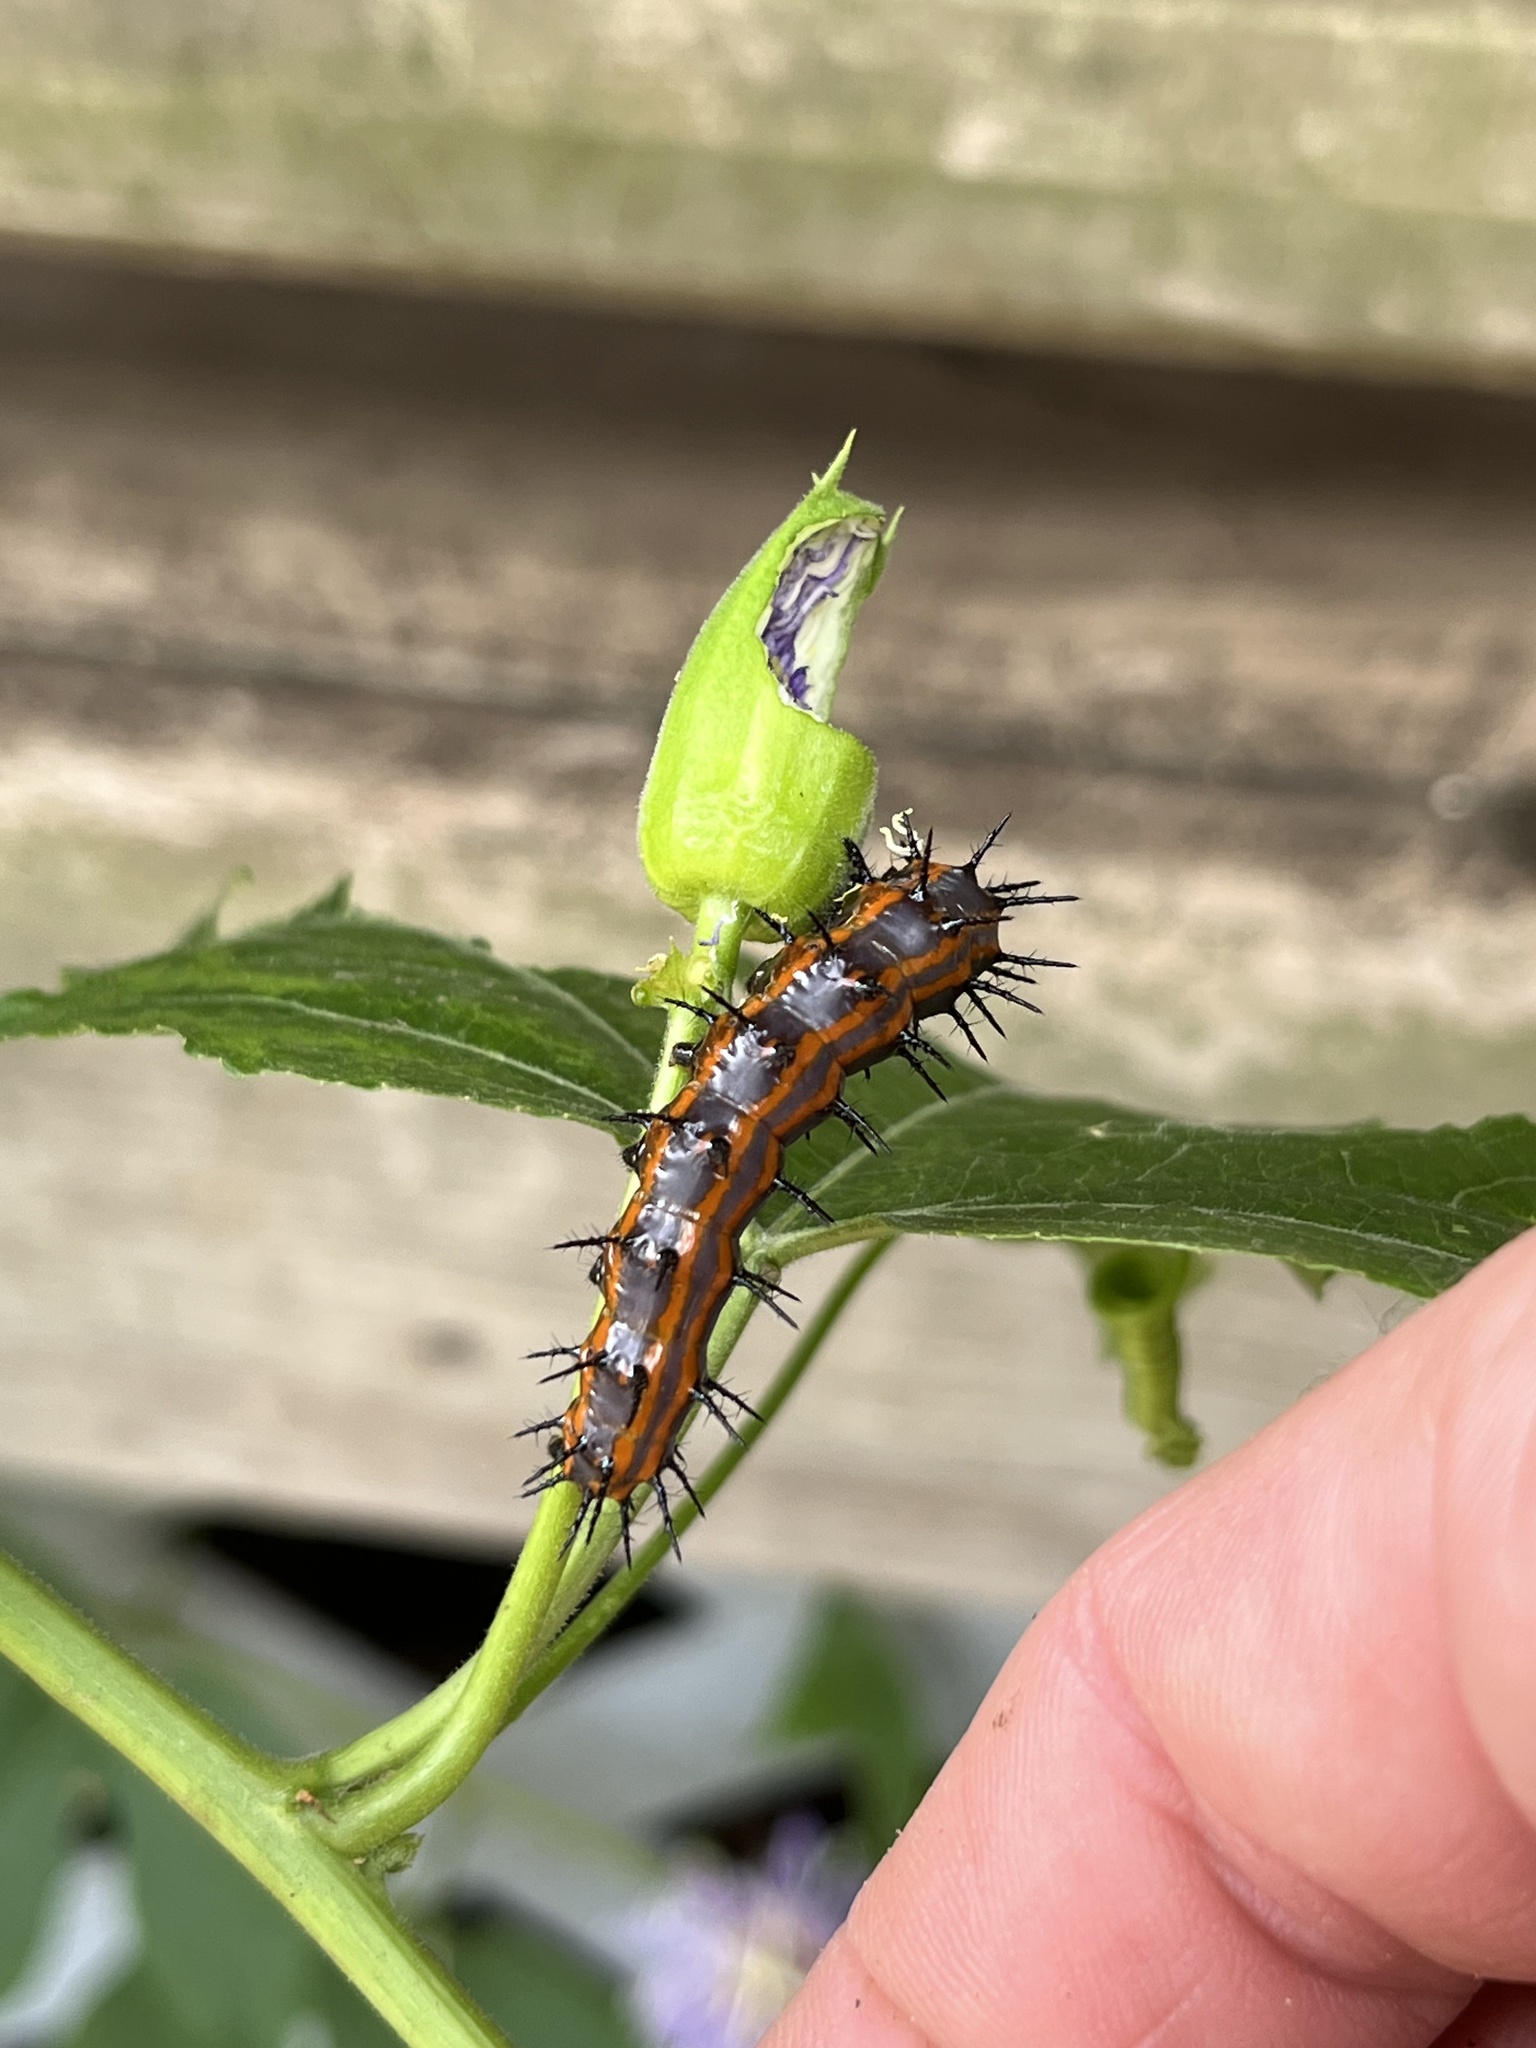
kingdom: Animalia
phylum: Arthropoda
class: Insecta
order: Lepidoptera
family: Nymphalidae
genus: Dione
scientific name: Dione vanillae
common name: Gulf fritillary
